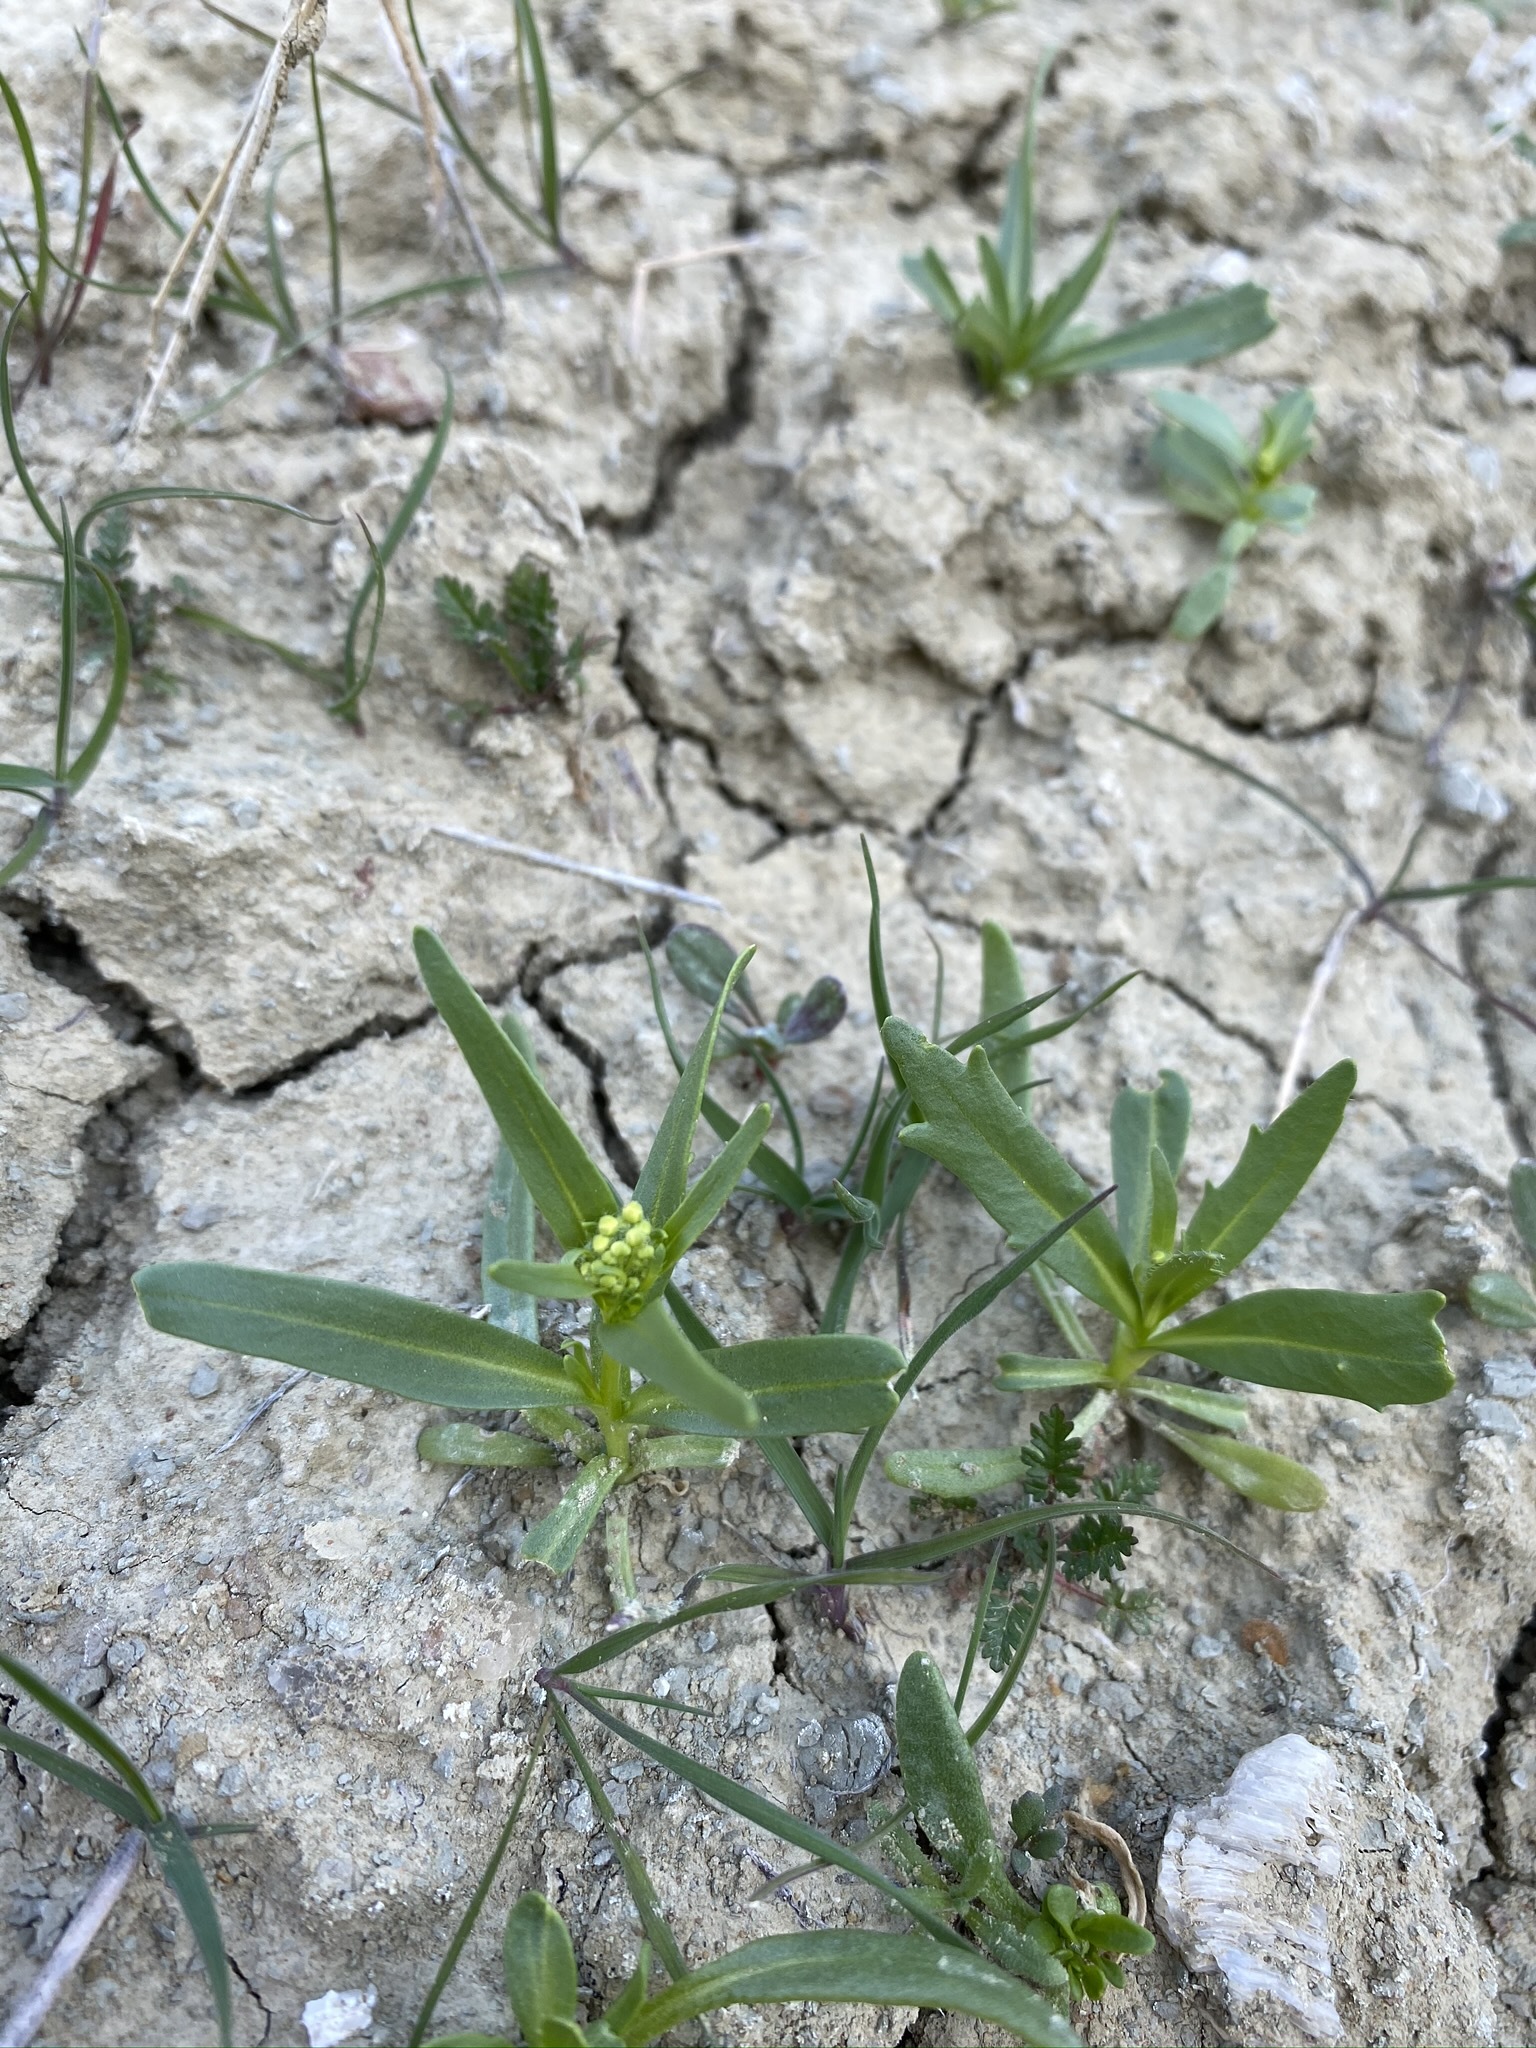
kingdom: Plantae
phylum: Tracheophyta
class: Magnoliopsida
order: Brassicales
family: Brassicaceae
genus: Lepidium
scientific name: Lepidium jaredii
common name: Jared's peppergrass
